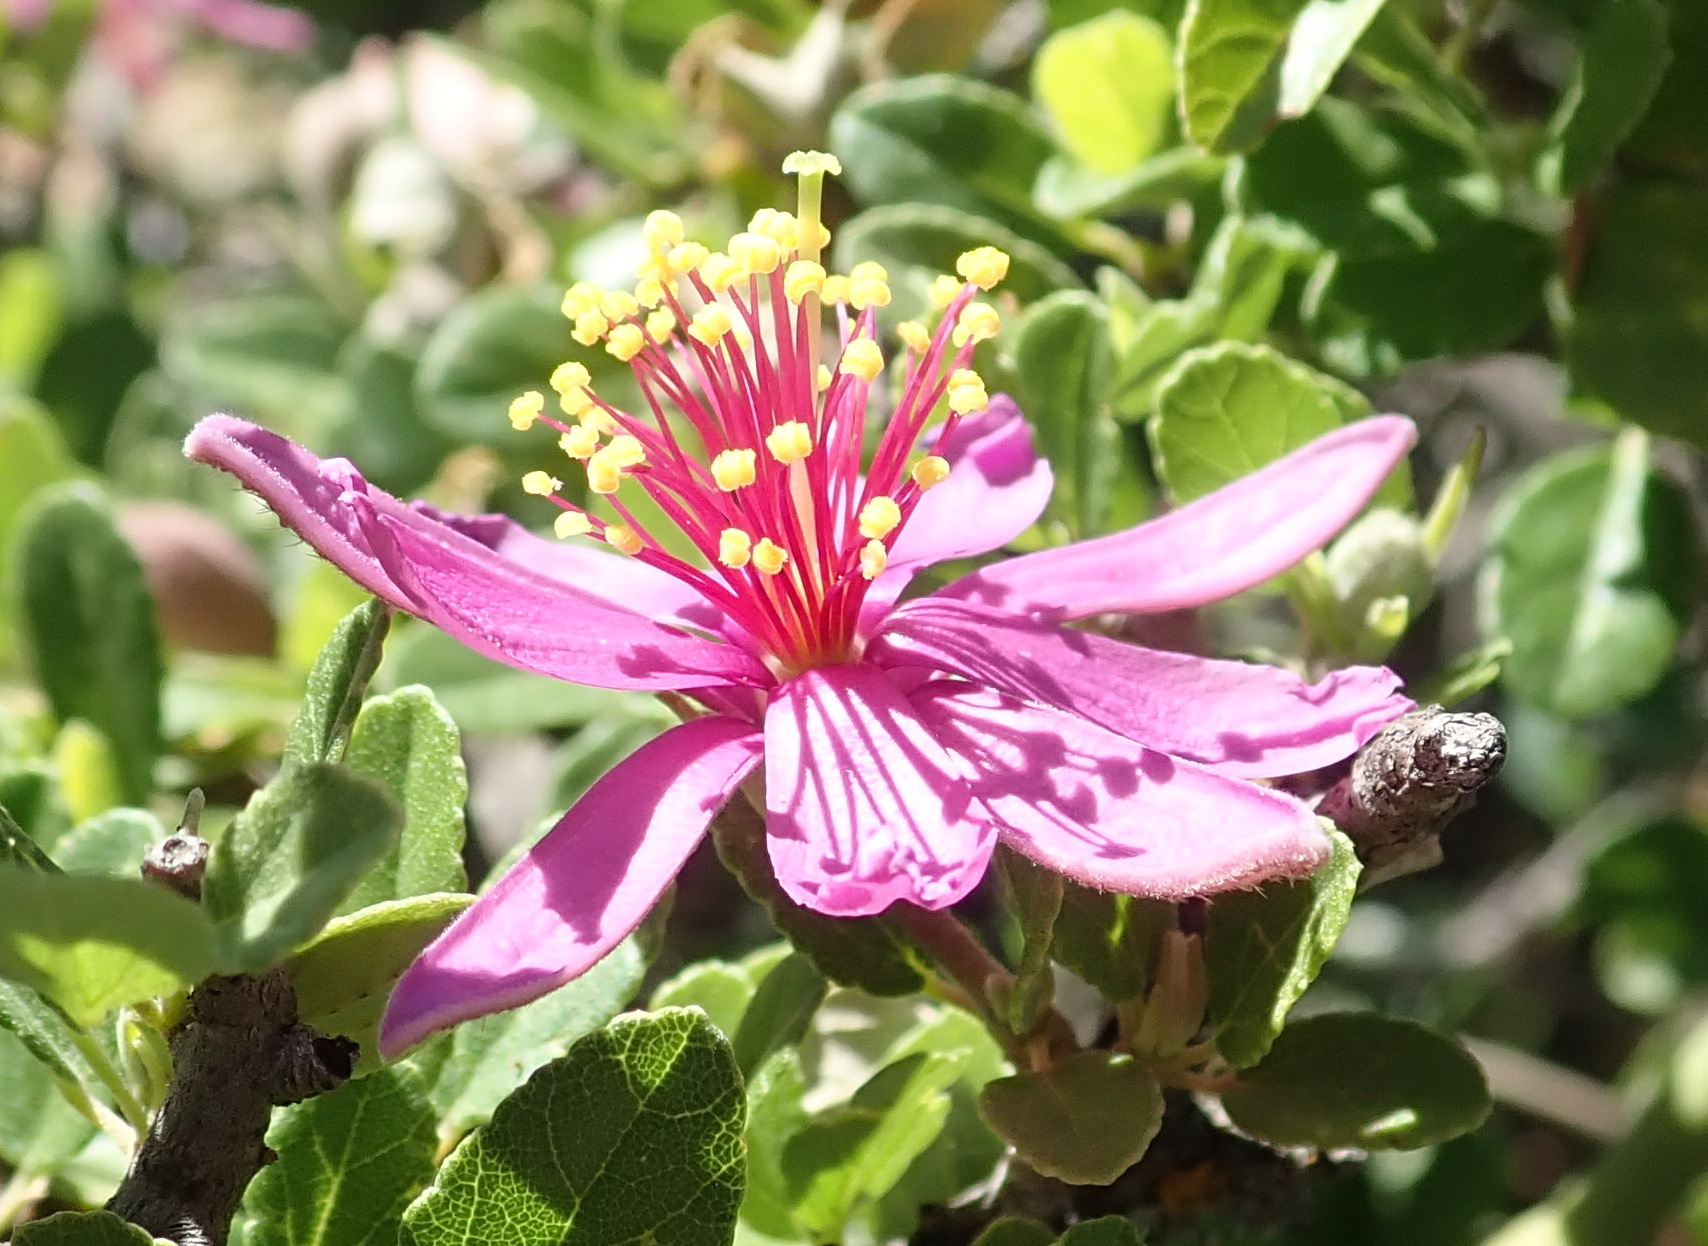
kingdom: Plantae
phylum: Tracheophyta
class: Magnoliopsida
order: Malvales
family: Malvaceae
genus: Grewia
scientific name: Grewia robusta
